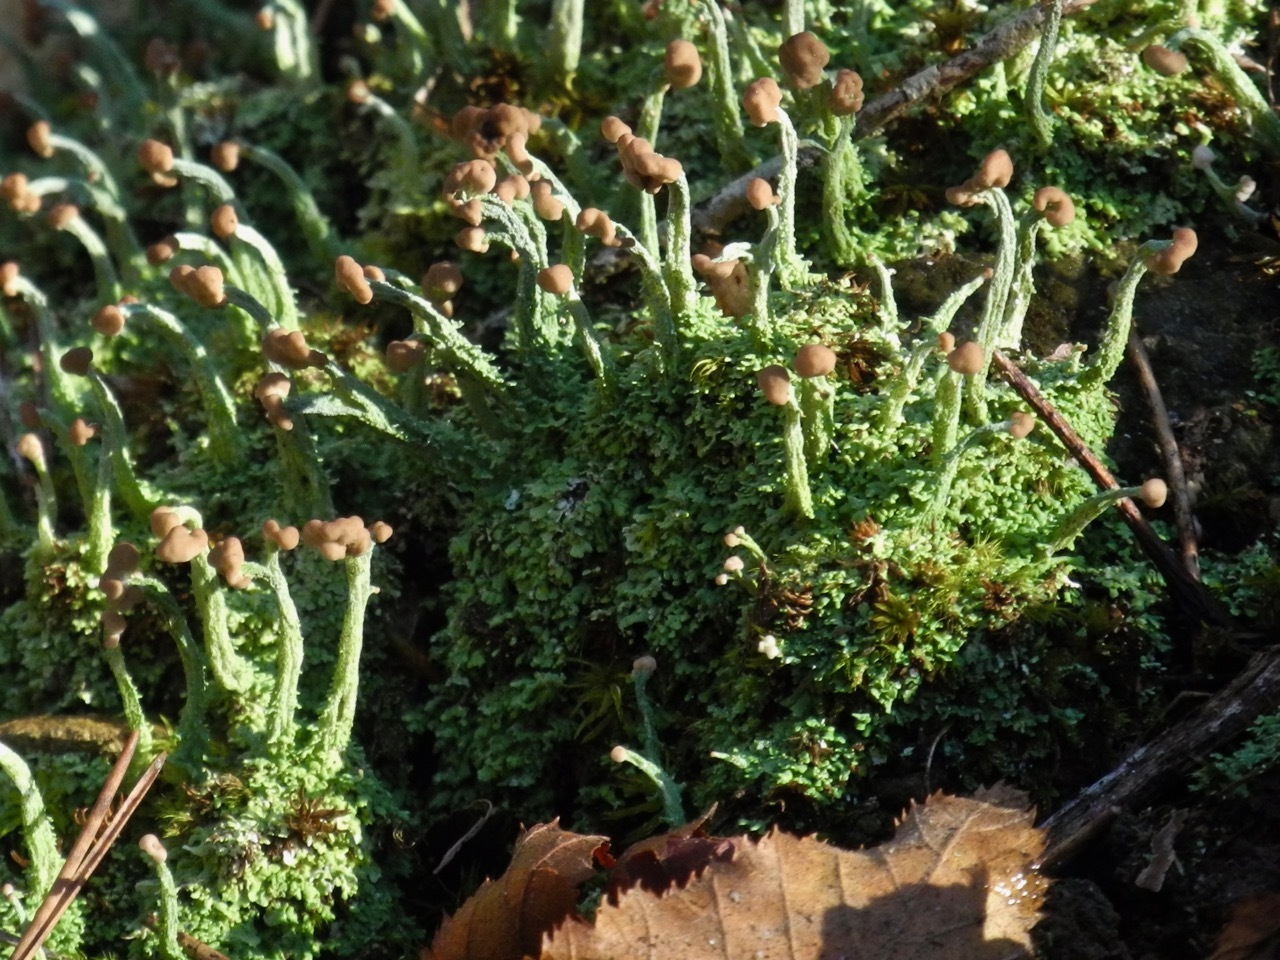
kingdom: Fungi
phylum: Ascomycota
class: Lecanoromycetes
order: Lecanorales
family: Cladoniaceae
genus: Cladonia
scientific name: Cladonia peziziformis
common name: Cup lichen
